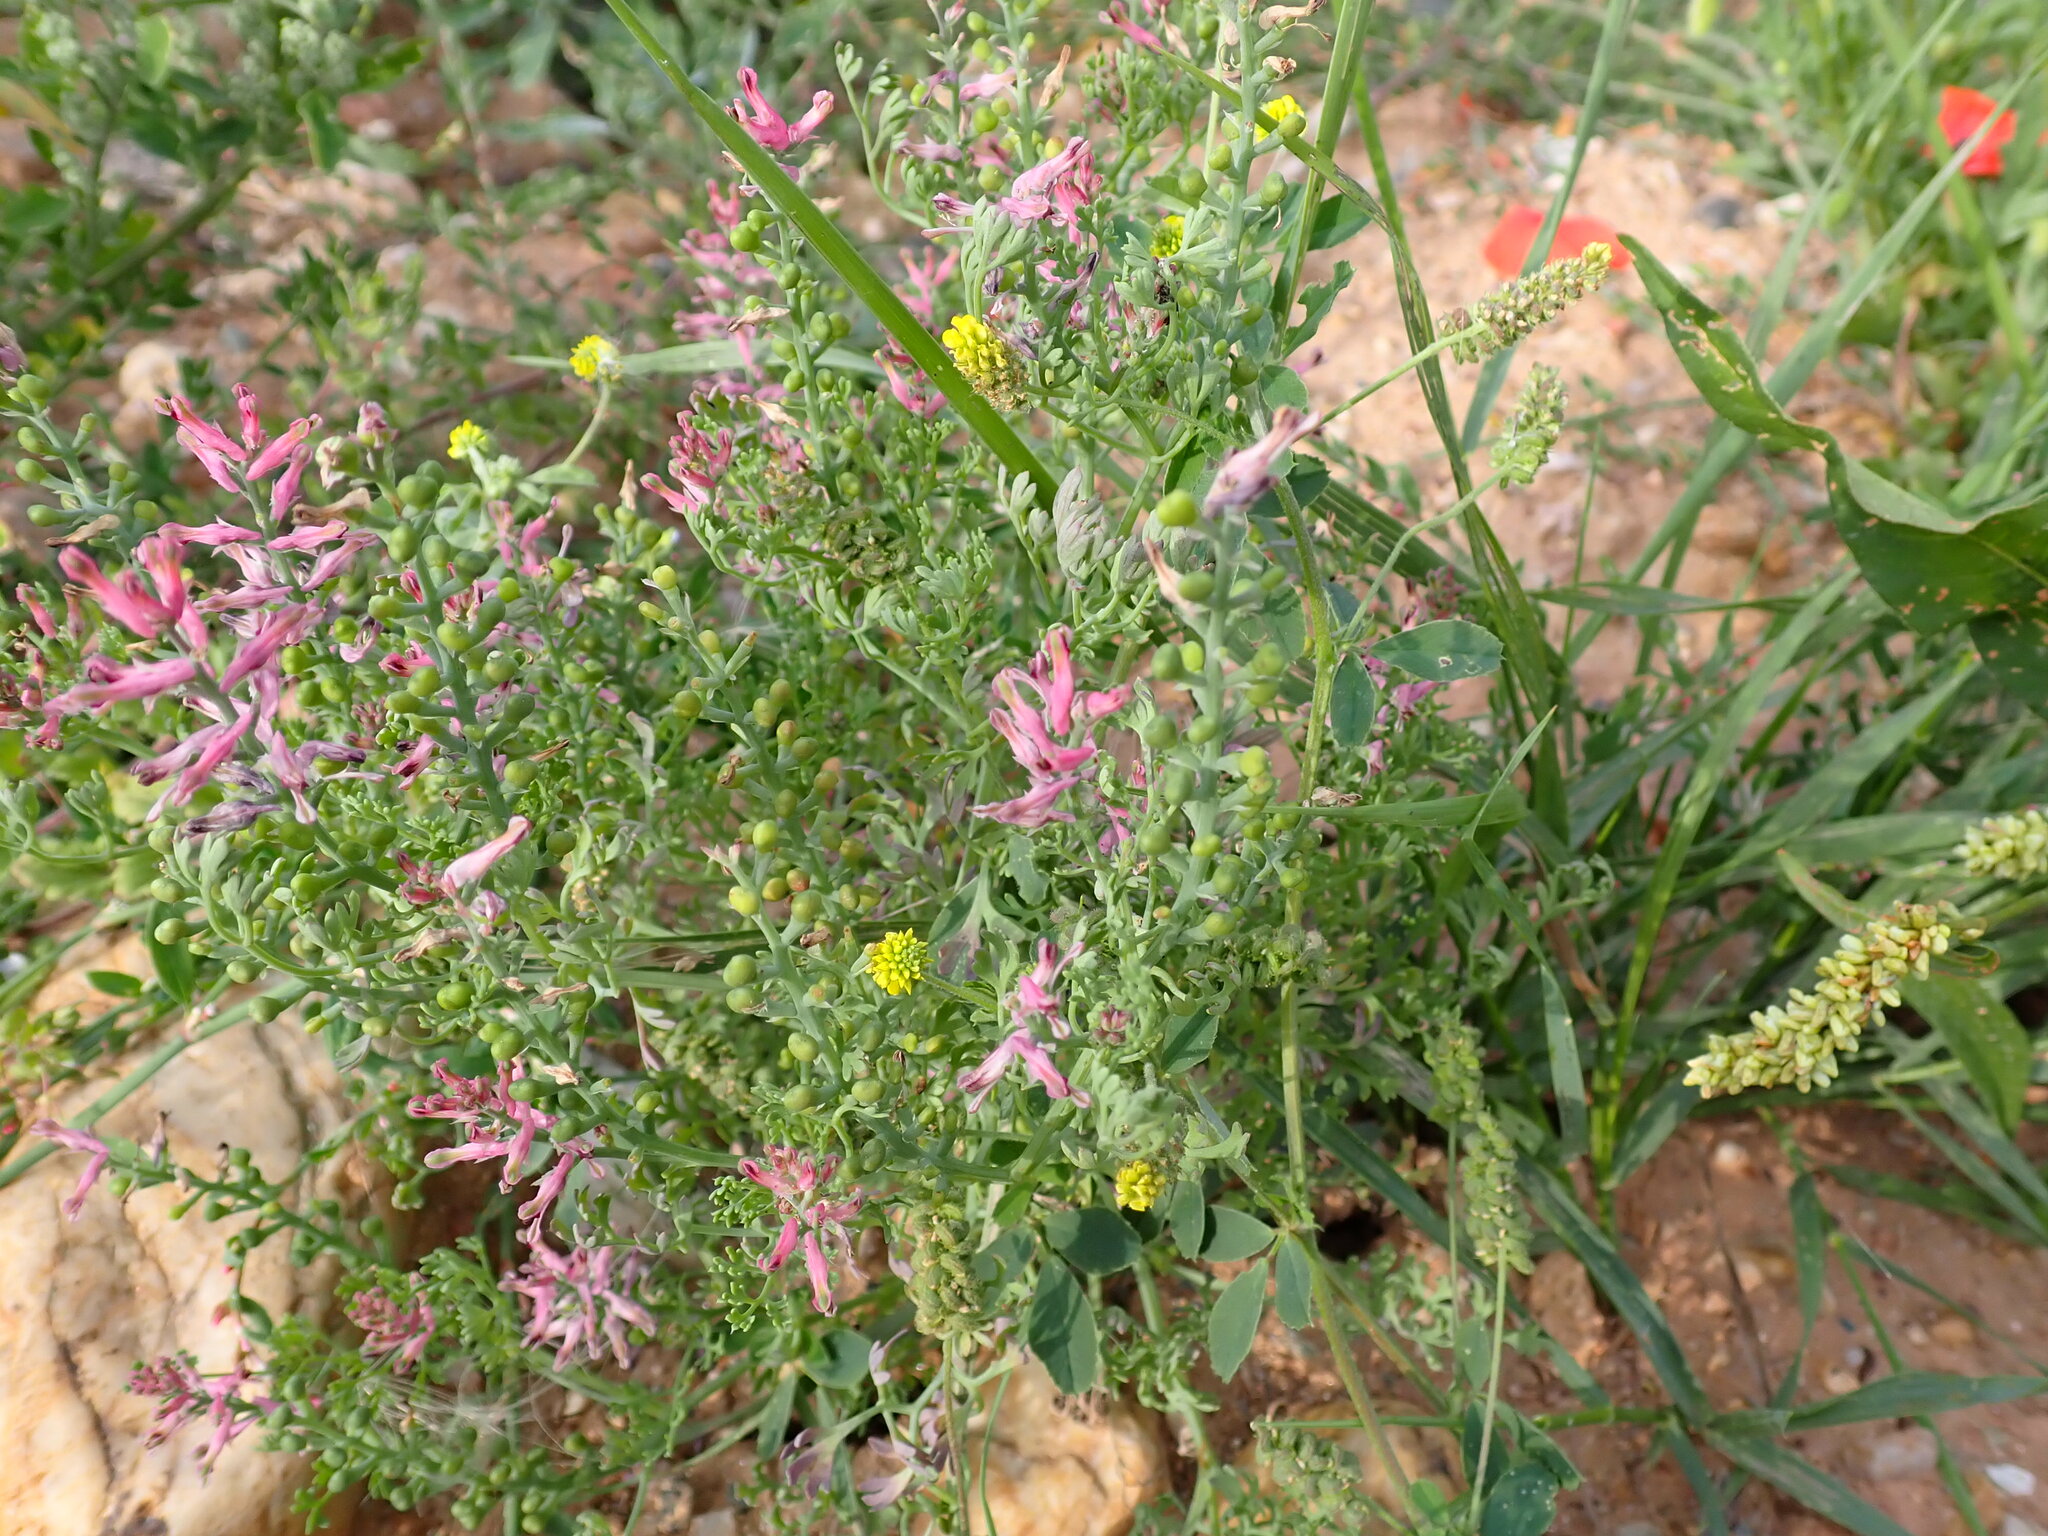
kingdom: Plantae
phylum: Tracheophyta
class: Magnoliopsida
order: Ranunculales
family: Papaveraceae
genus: Fumaria
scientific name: Fumaria officinalis
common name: Common fumitory
